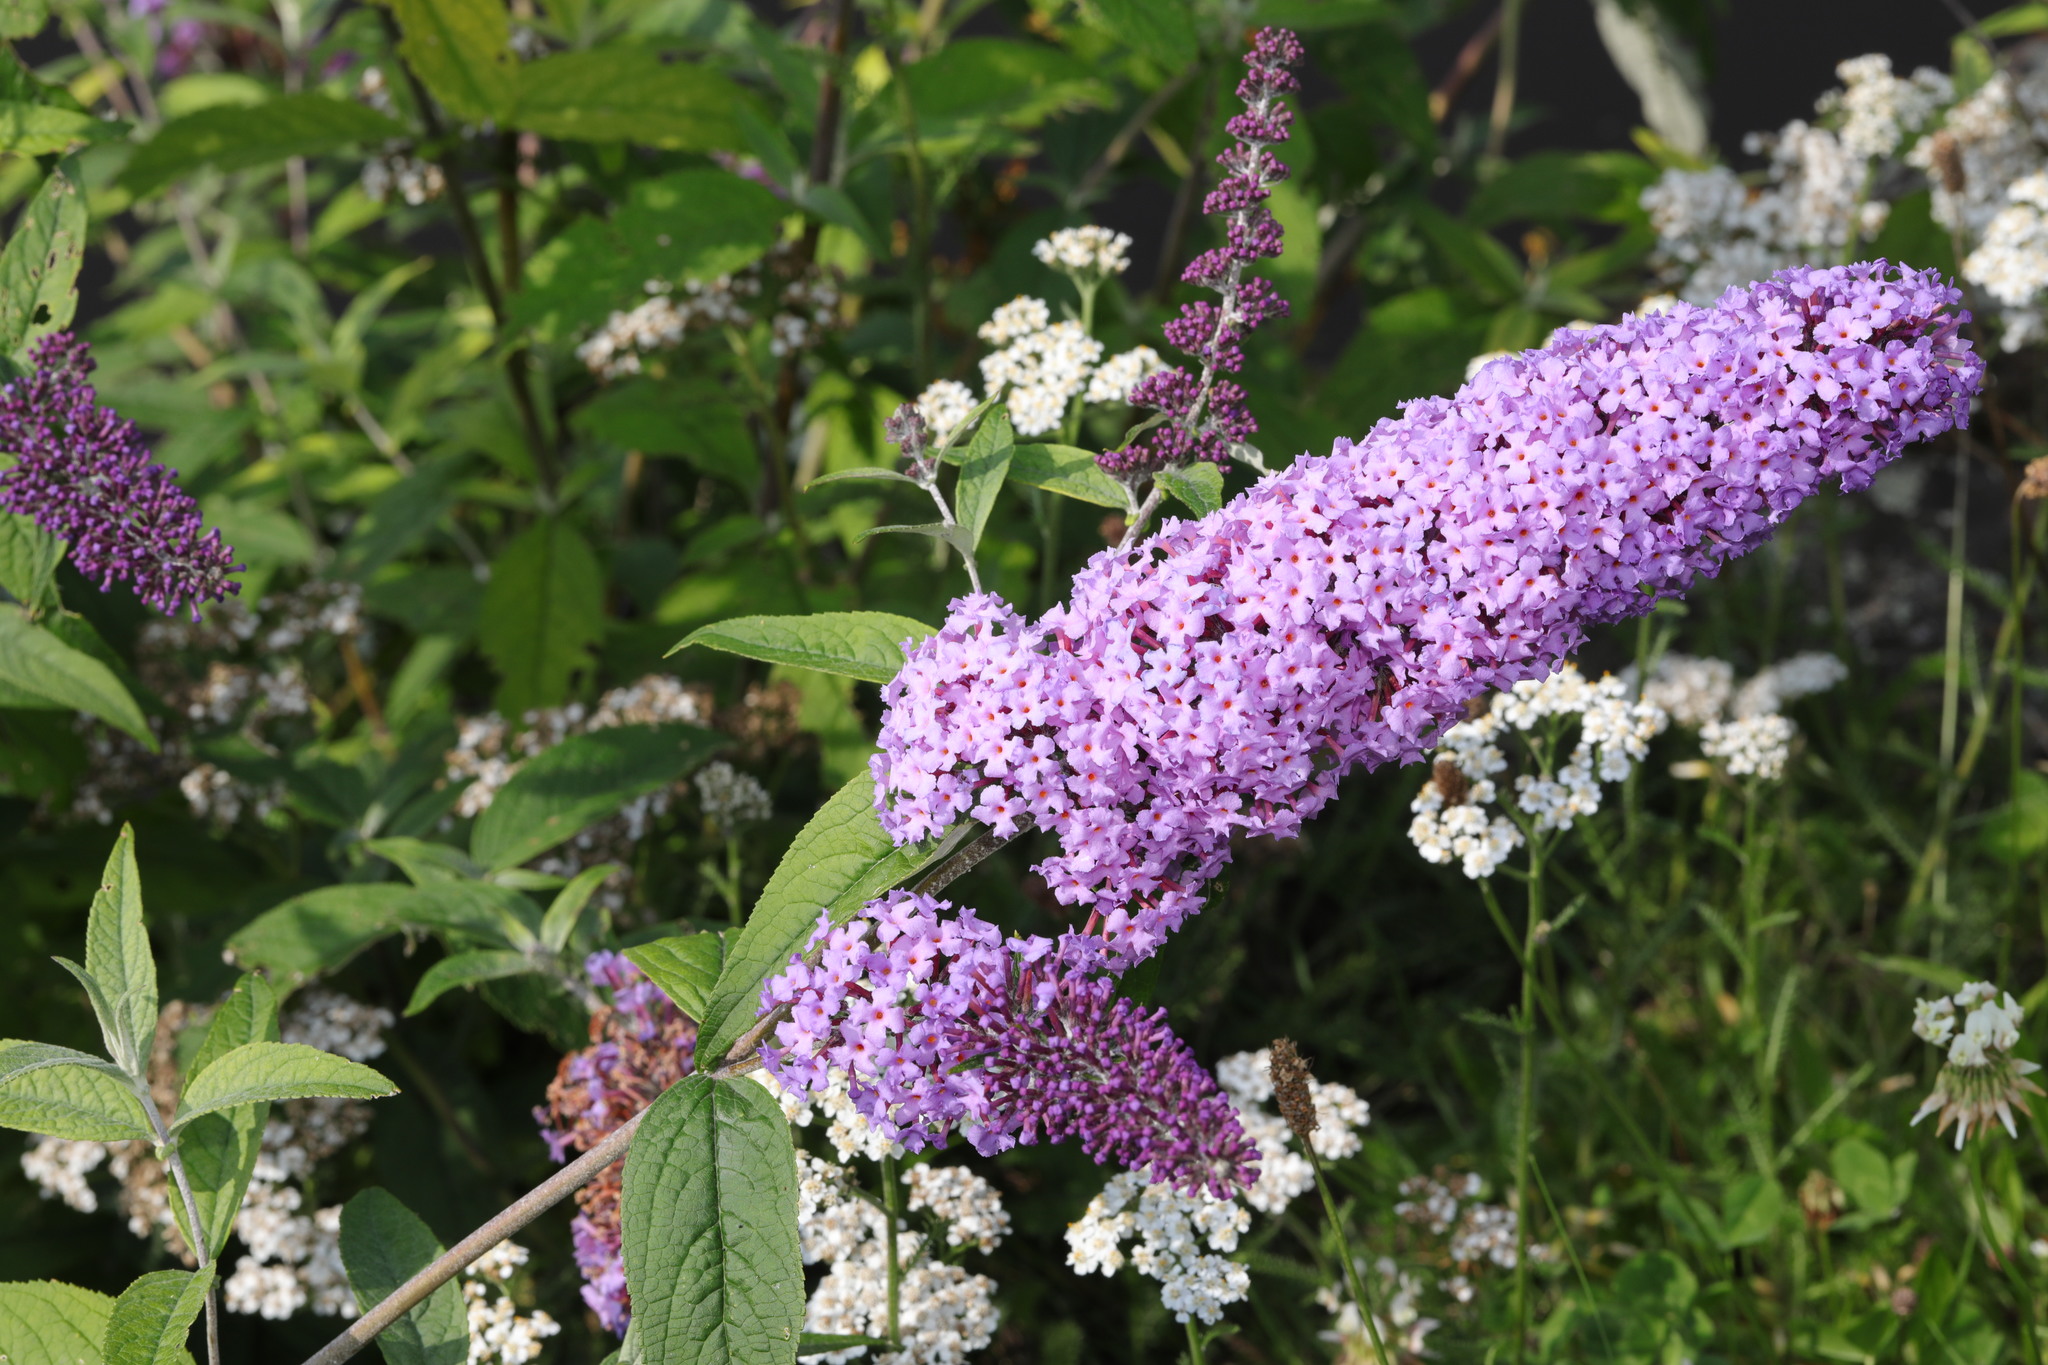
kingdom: Plantae
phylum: Tracheophyta
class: Magnoliopsida
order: Lamiales
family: Scrophulariaceae
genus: Buddleja
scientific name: Buddleja davidii
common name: Butterfly-bush
